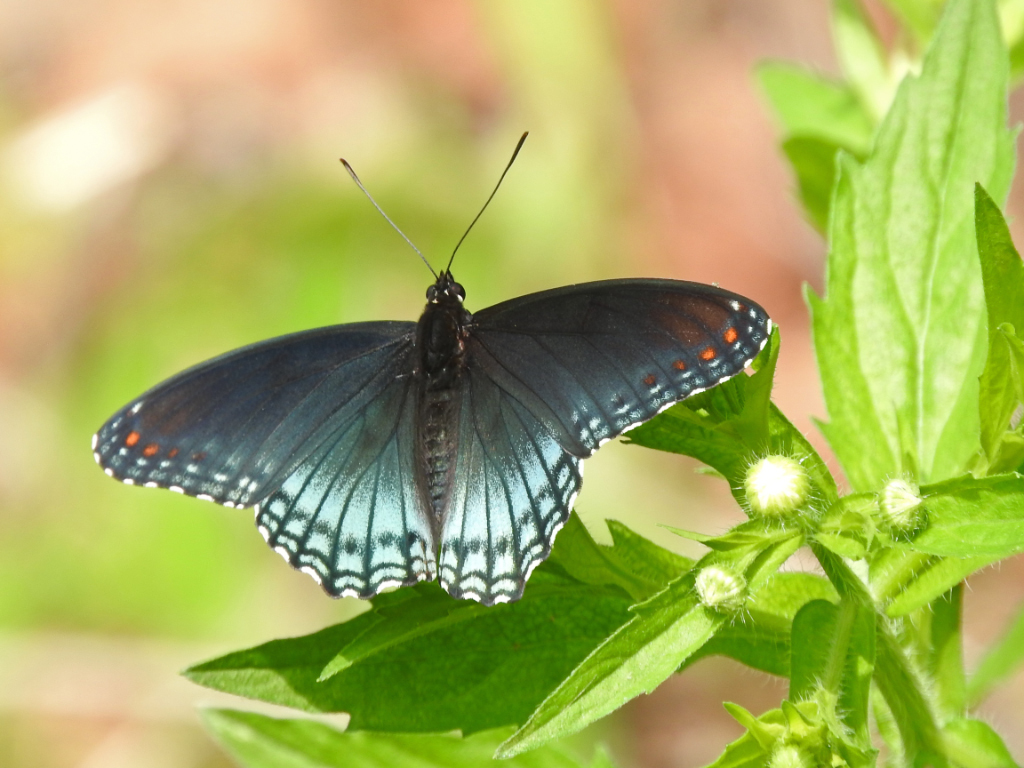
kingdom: Animalia
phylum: Arthropoda
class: Insecta
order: Lepidoptera
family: Nymphalidae
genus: Limenitis
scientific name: Limenitis astyanax
